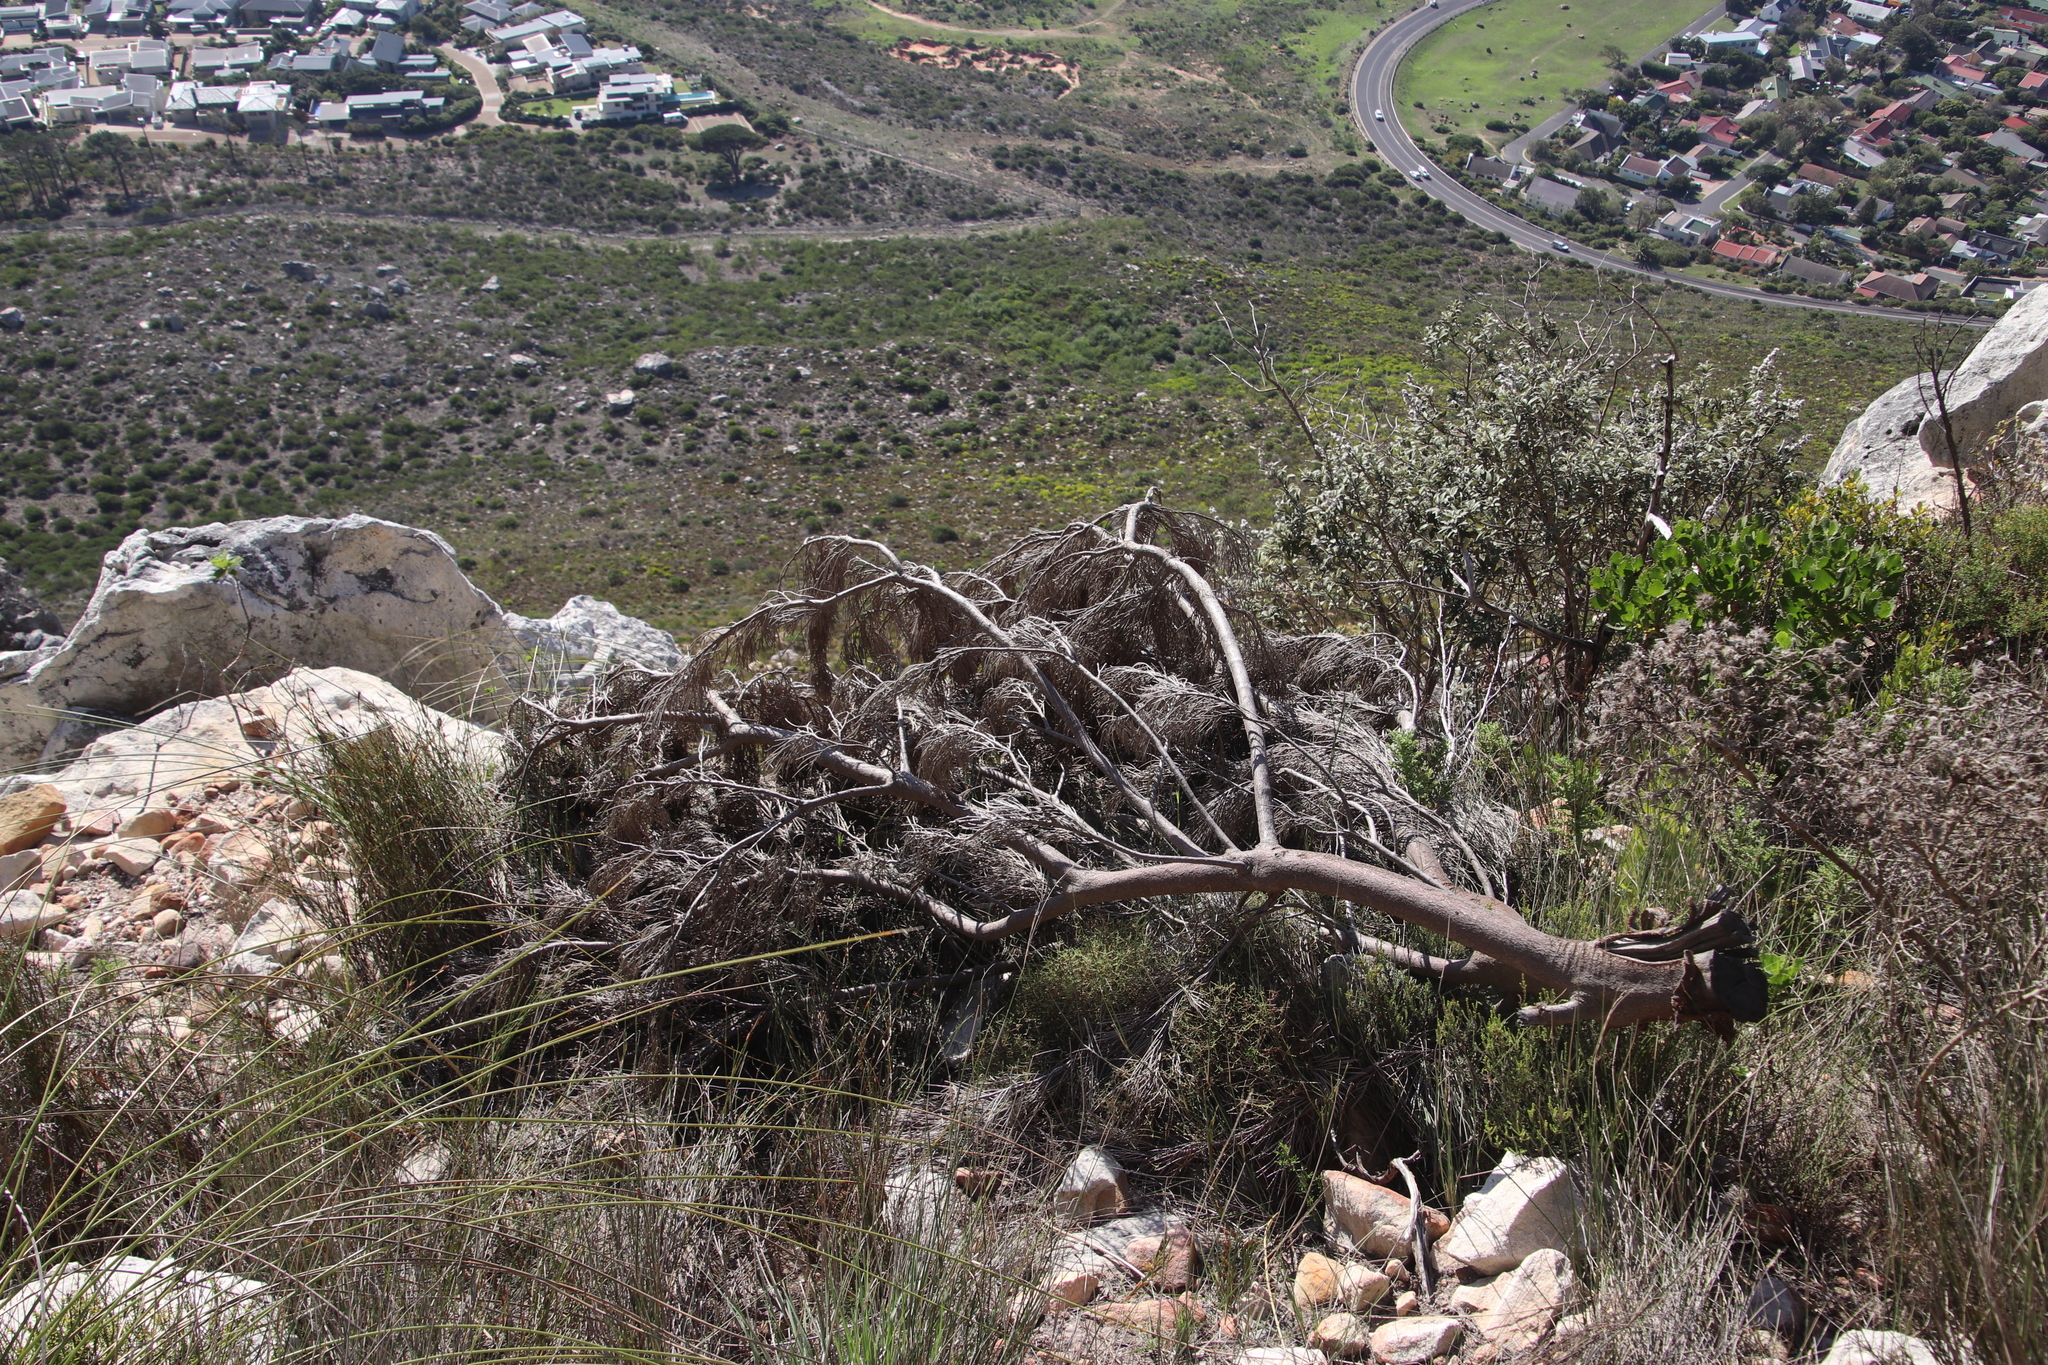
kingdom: Plantae
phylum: Tracheophyta
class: Magnoliopsida
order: Proteales
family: Proteaceae
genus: Hakea
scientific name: Hakea drupacea
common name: Sweet hakea
